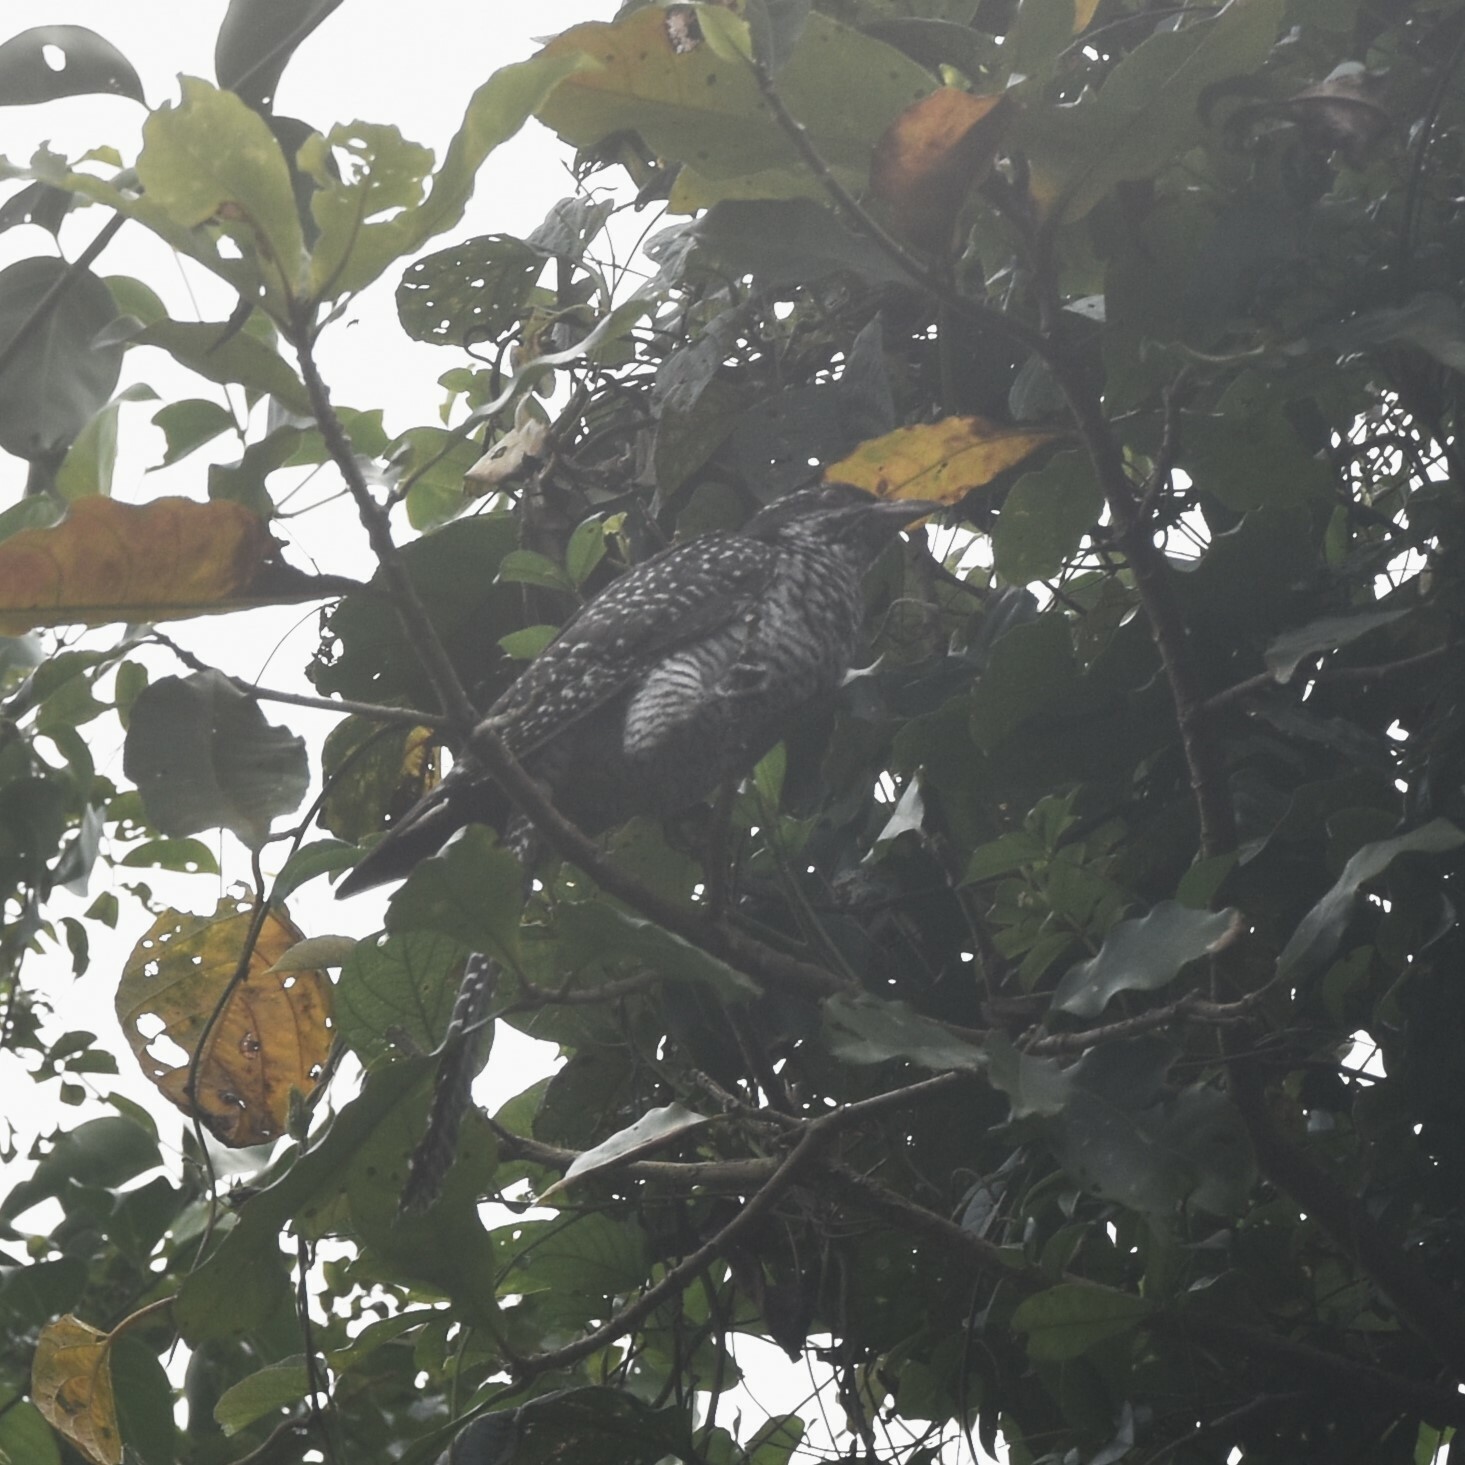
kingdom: Animalia
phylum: Chordata
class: Aves
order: Cuculiformes
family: Cuculidae
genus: Eudynamys
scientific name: Eudynamys scolopaceus
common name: Asian koel
